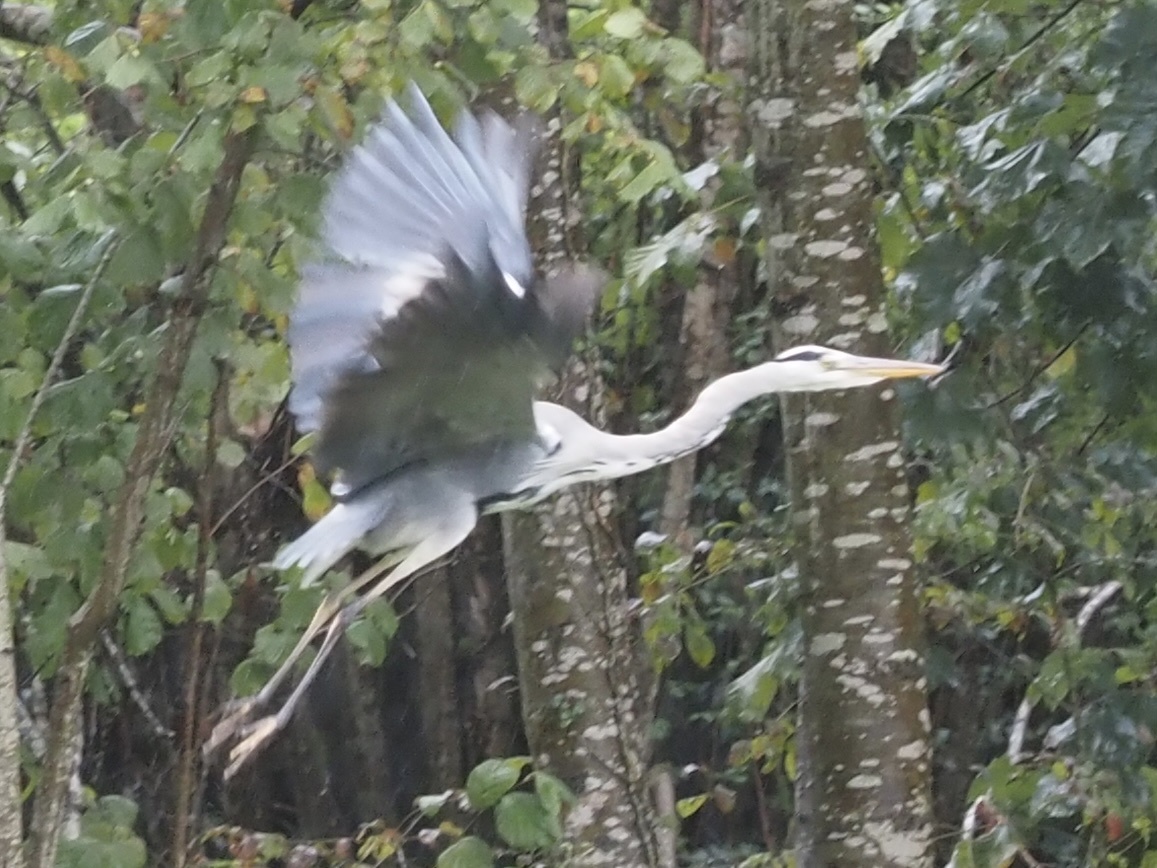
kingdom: Animalia
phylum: Chordata
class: Aves
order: Pelecaniformes
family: Ardeidae
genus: Ardea
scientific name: Ardea cinerea
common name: Grey heron
